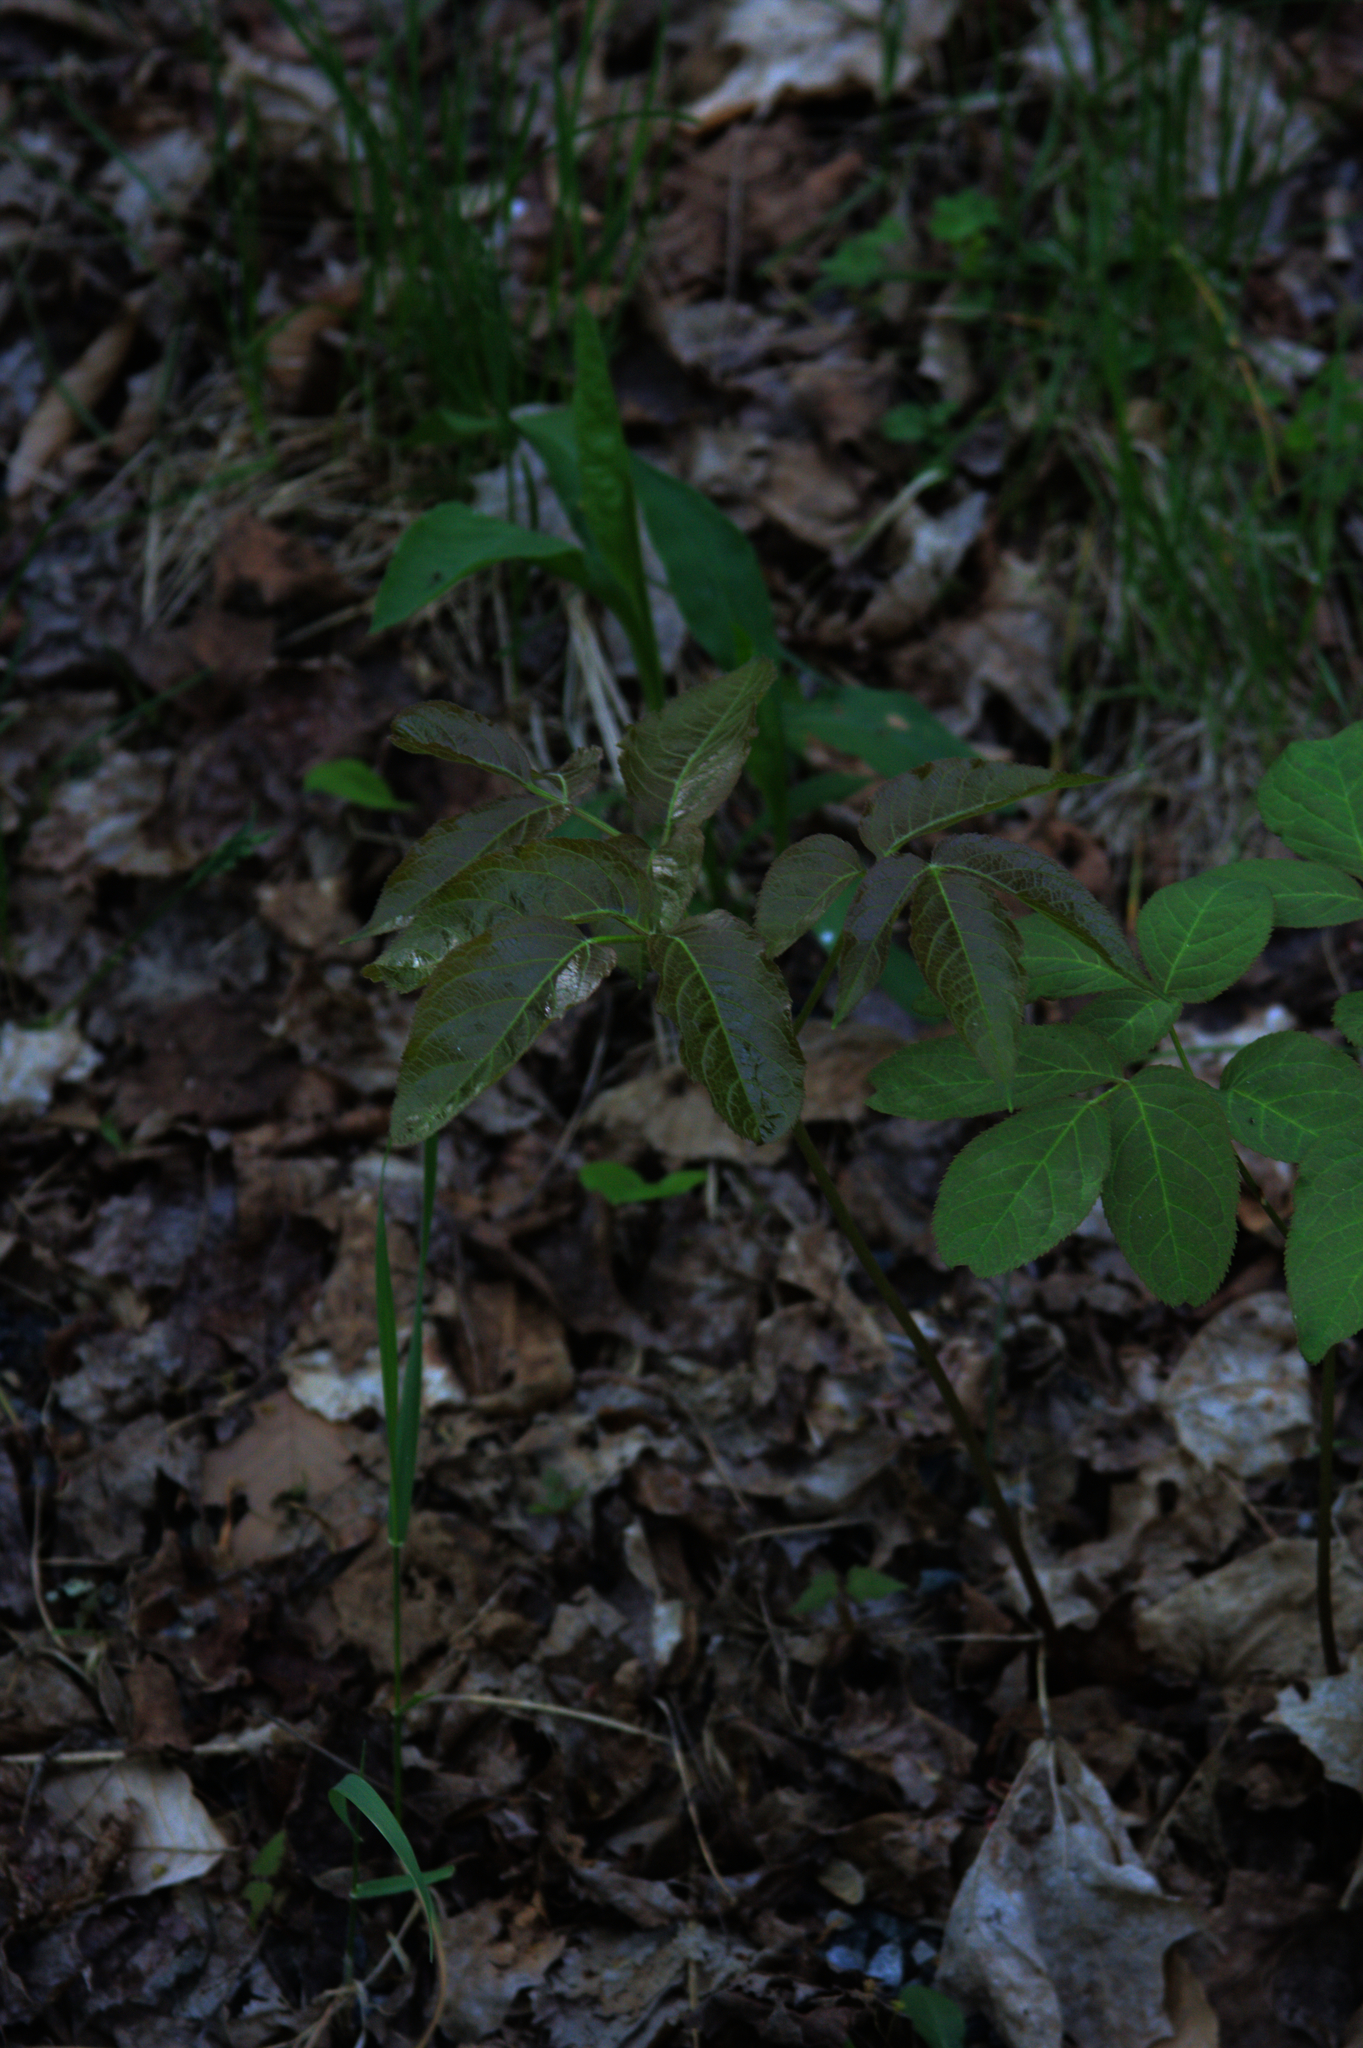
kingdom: Plantae
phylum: Tracheophyta
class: Magnoliopsida
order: Apiales
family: Araliaceae
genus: Aralia
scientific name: Aralia nudicaulis
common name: Wild sarsaparilla
